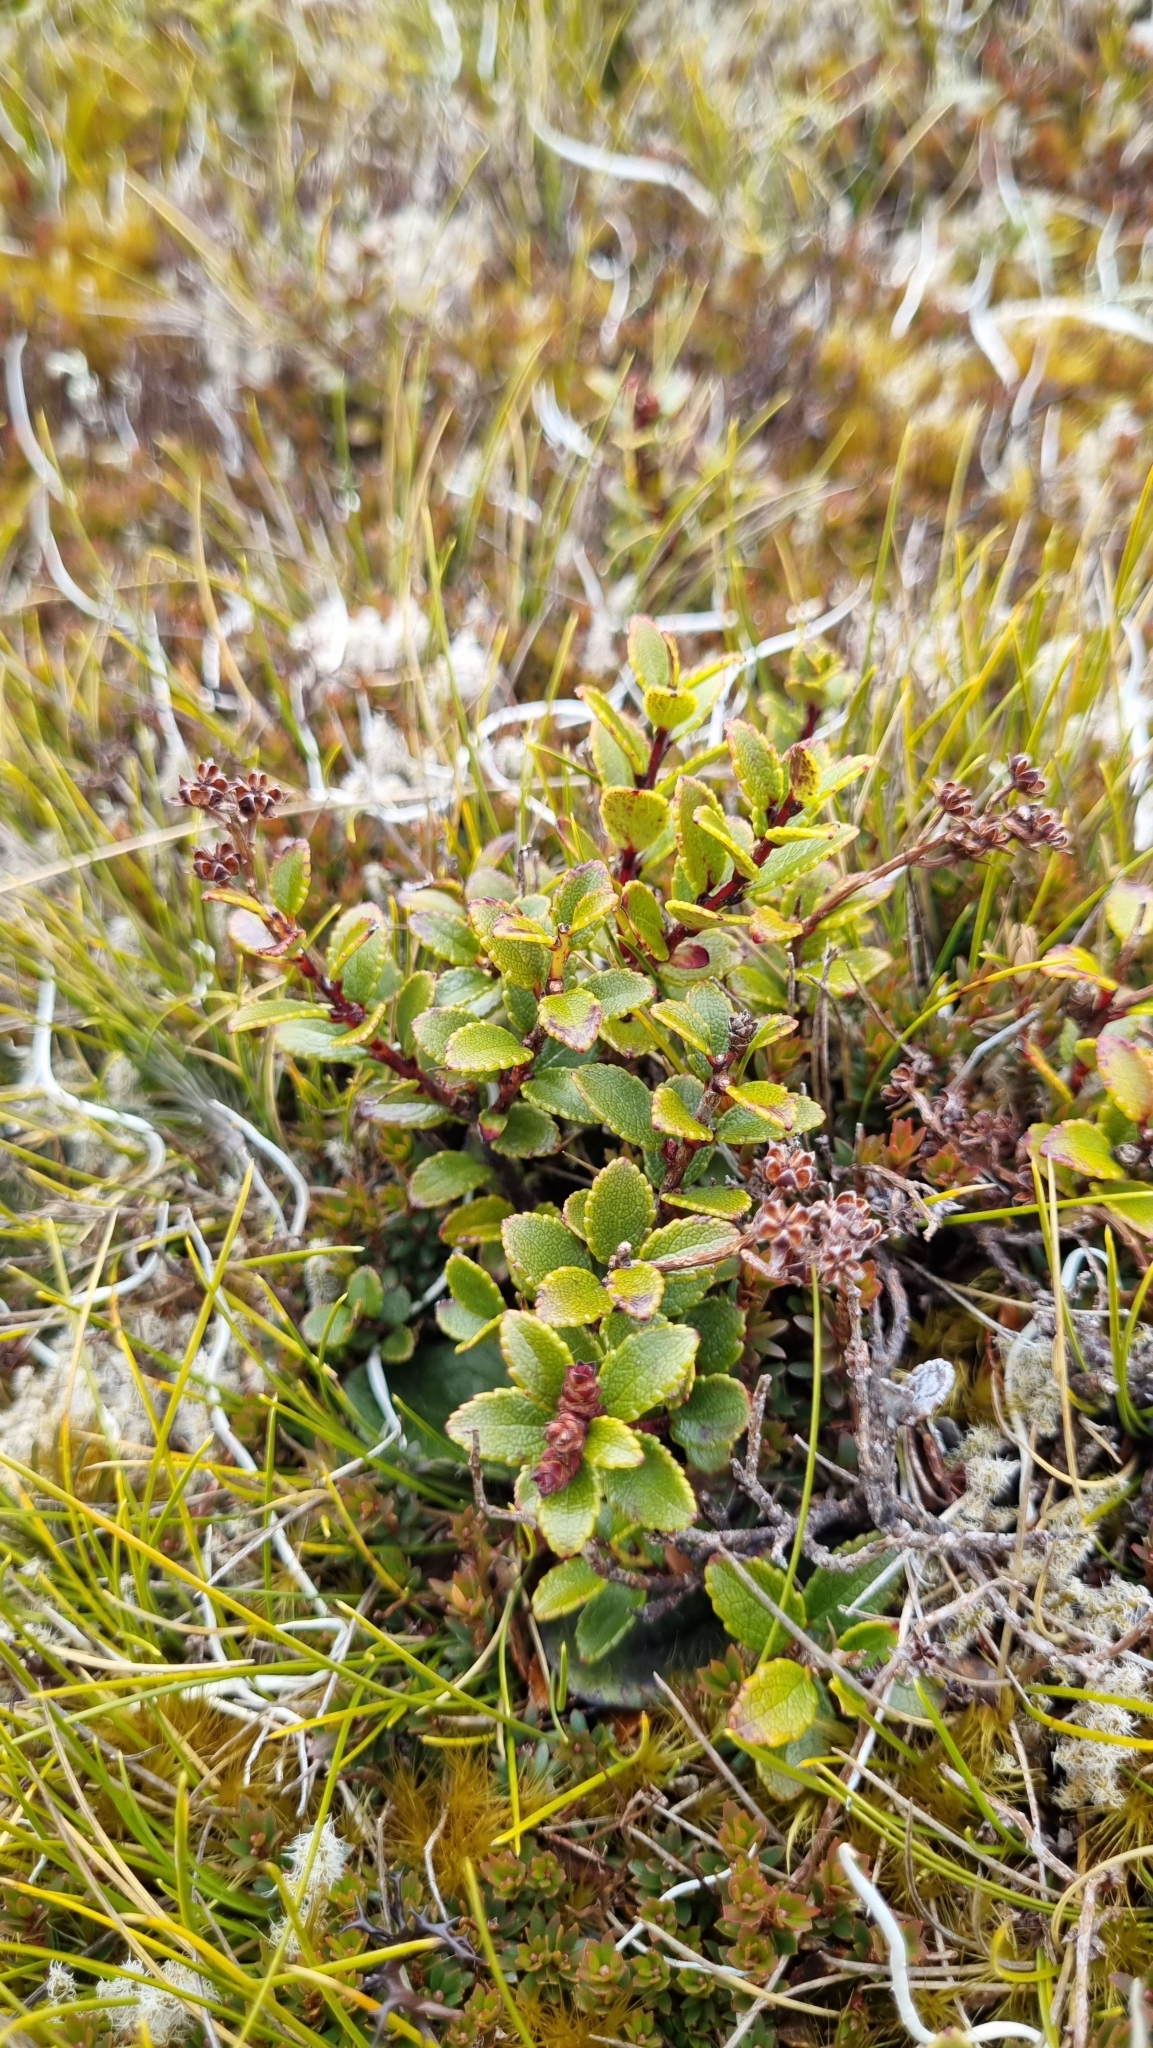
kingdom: Plantae
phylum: Tracheophyta
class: Magnoliopsida
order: Ericales
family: Ericaceae
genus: Gaultheria
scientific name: Gaultheria crassa
